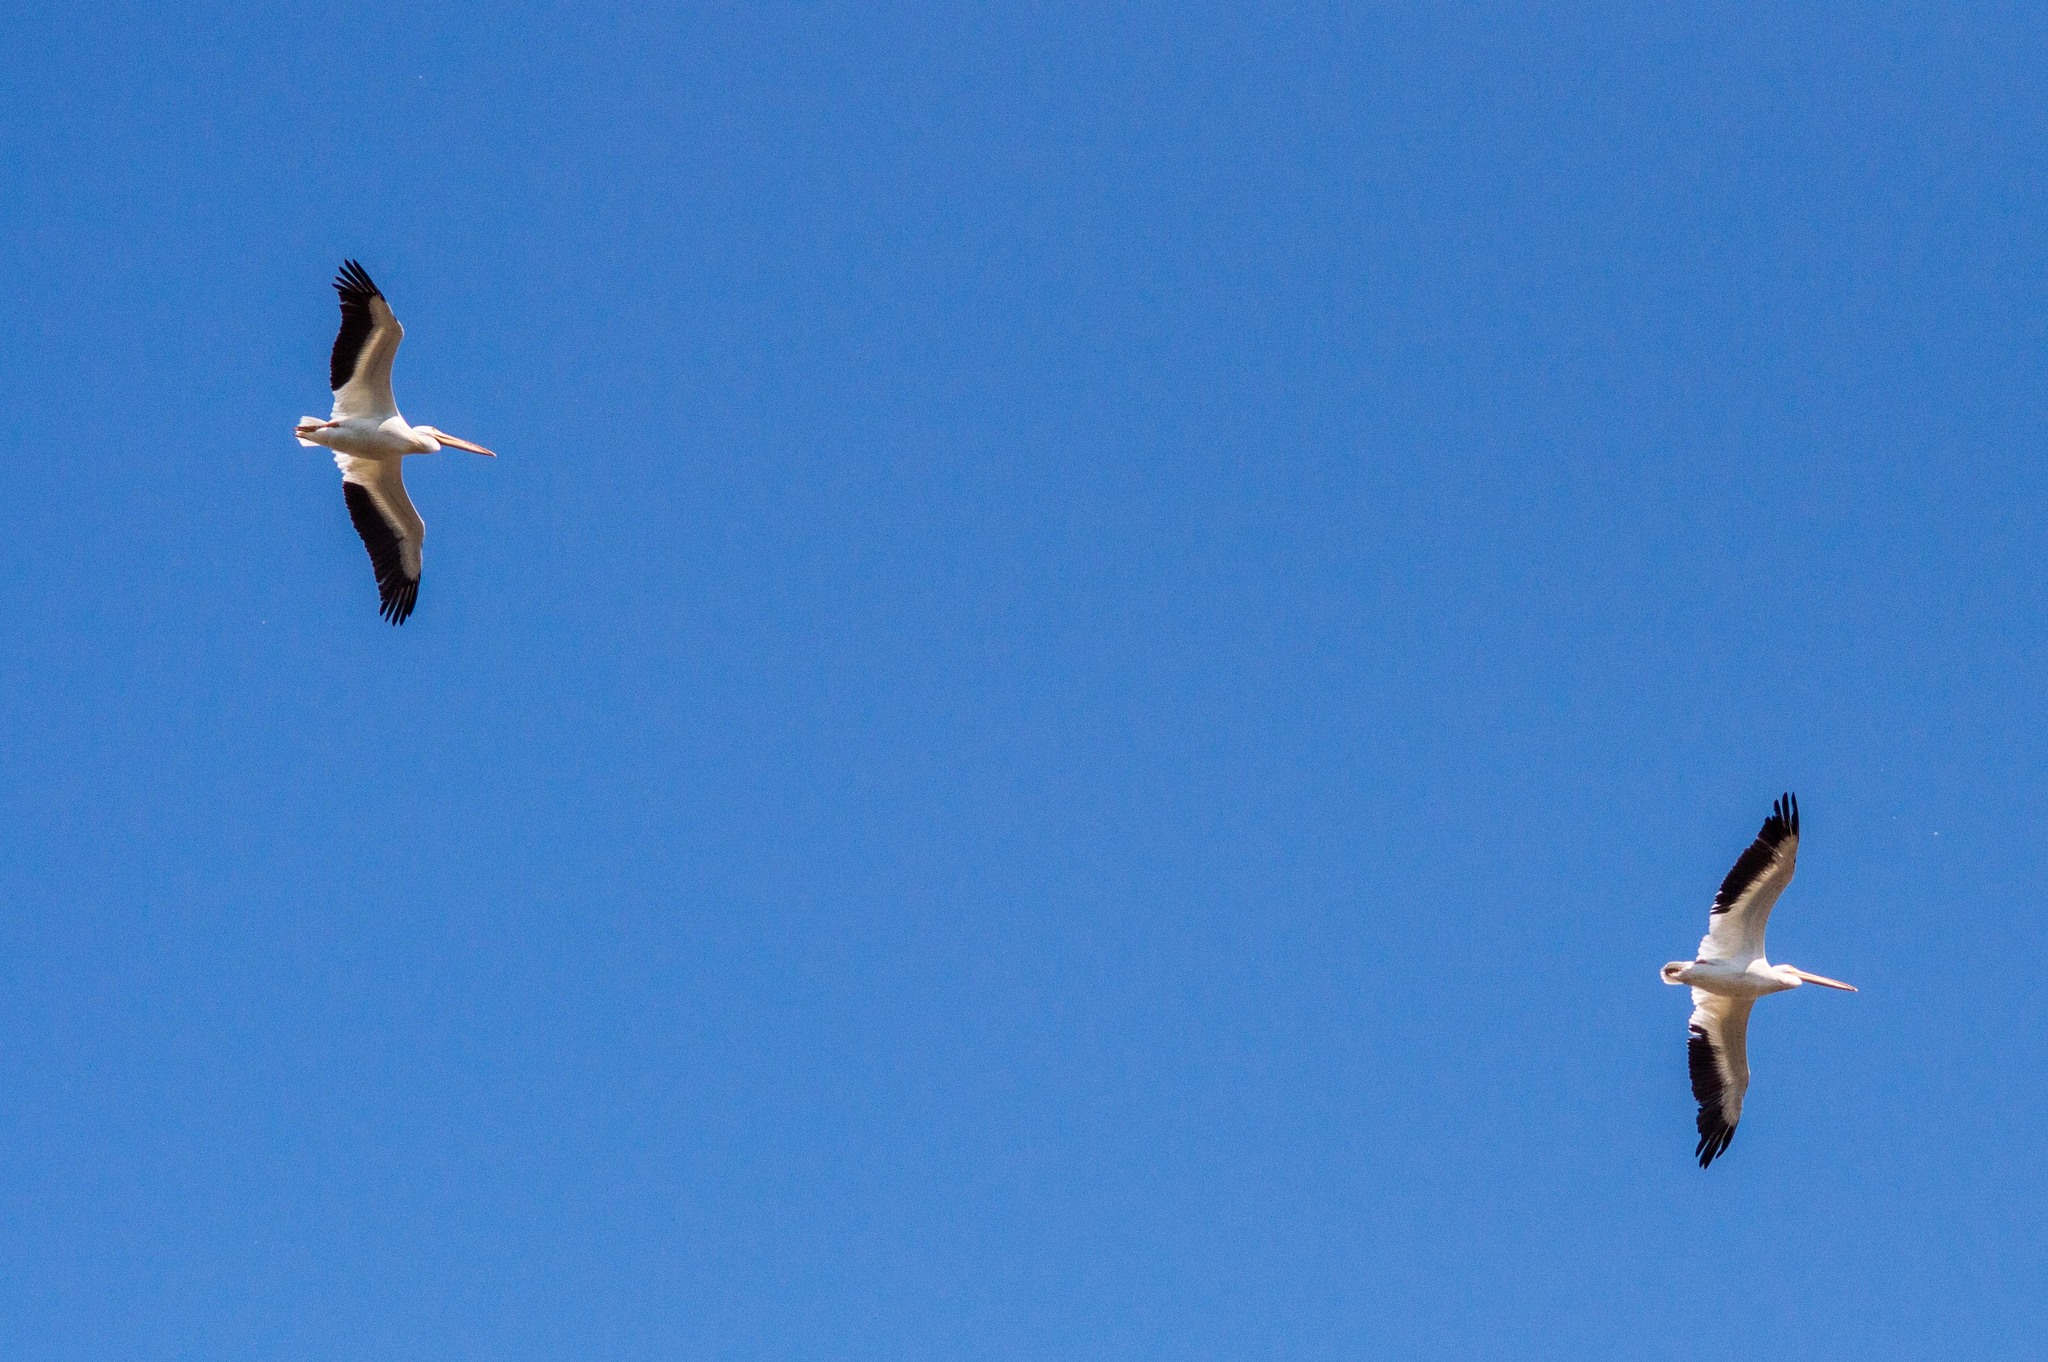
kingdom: Animalia
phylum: Chordata
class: Aves
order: Pelecaniformes
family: Pelecanidae
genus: Pelecanus
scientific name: Pelecanus erythrorhynchos
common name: American white pelican
